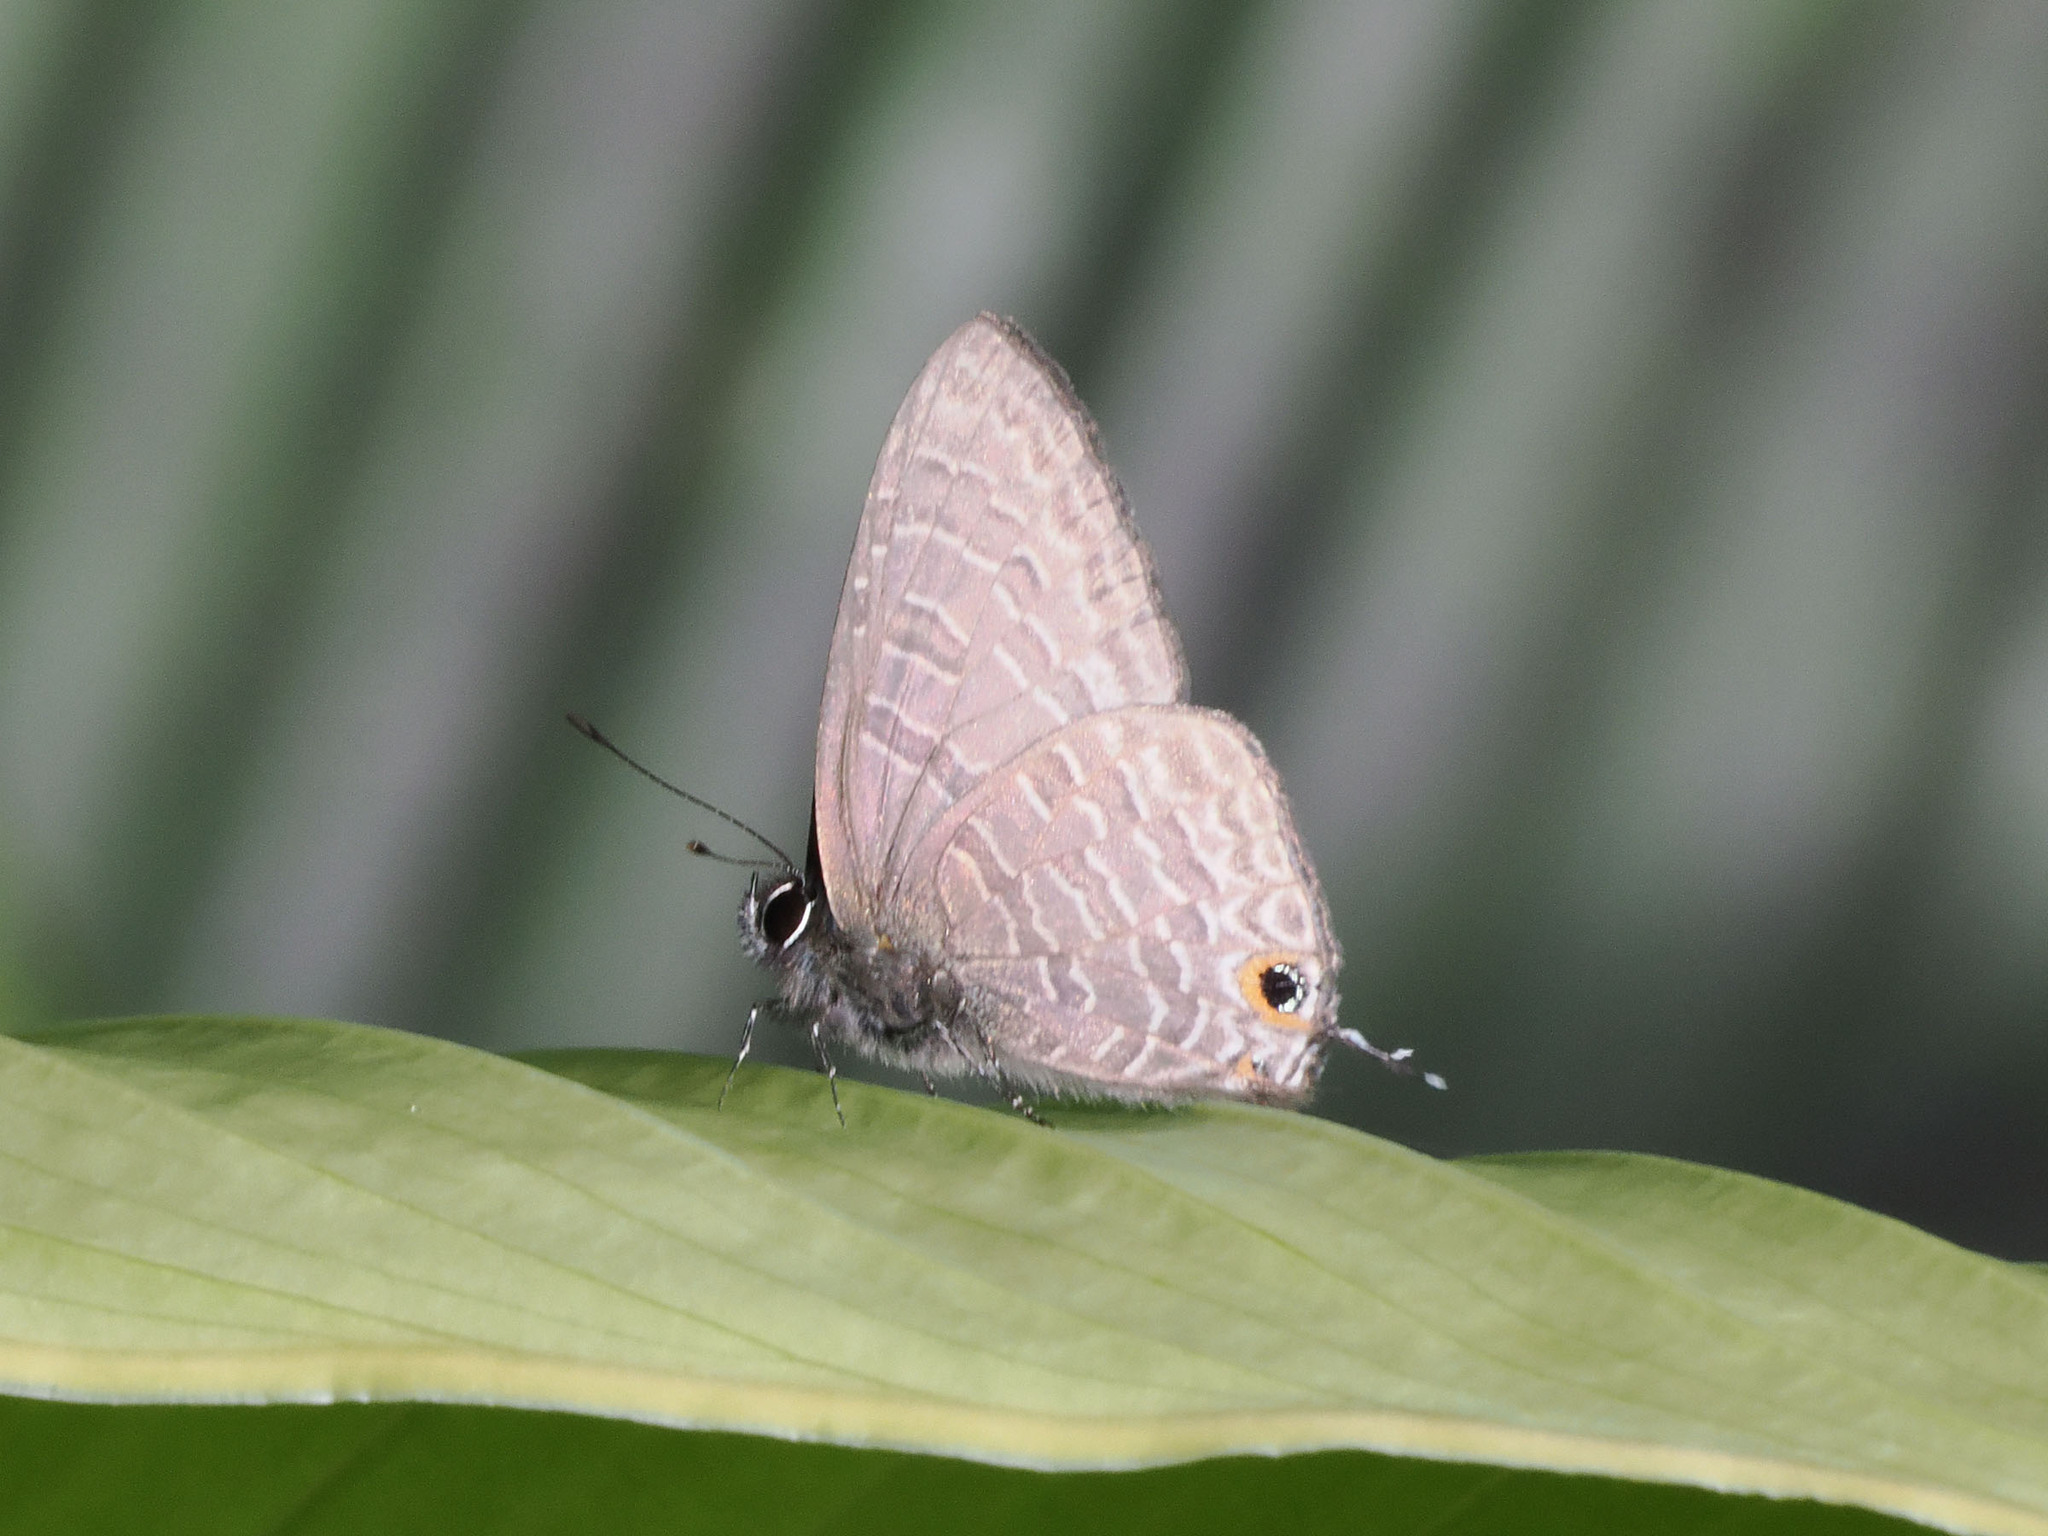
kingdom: Animalia
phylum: Arthropoda
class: Insecta
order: Lepidoptera
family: Lycaenidae
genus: Ionolyce
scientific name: Ionolyce helicon
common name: Pointed line blue
